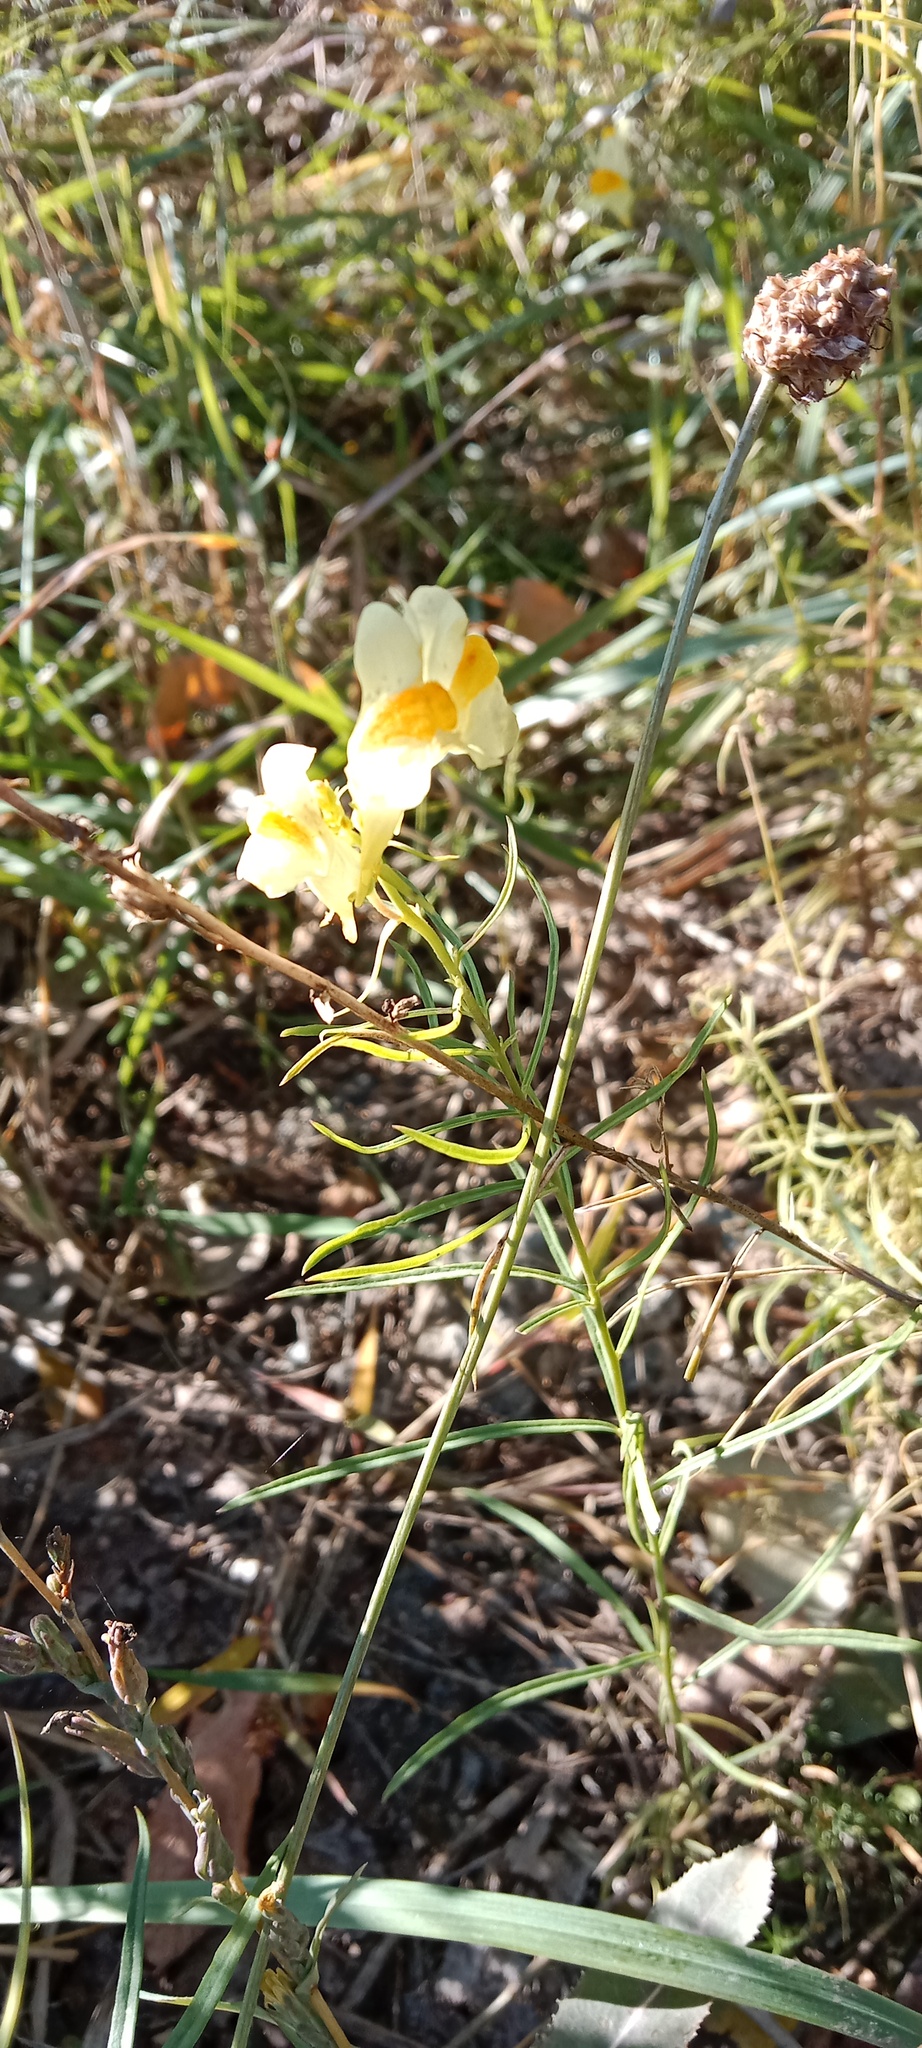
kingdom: Plantae
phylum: Tracheophyta
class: Magnoliopsida
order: Lamiales
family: Plantaginaceae
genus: Linaria
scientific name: Linaria vulgaris
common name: Butter and eggs
